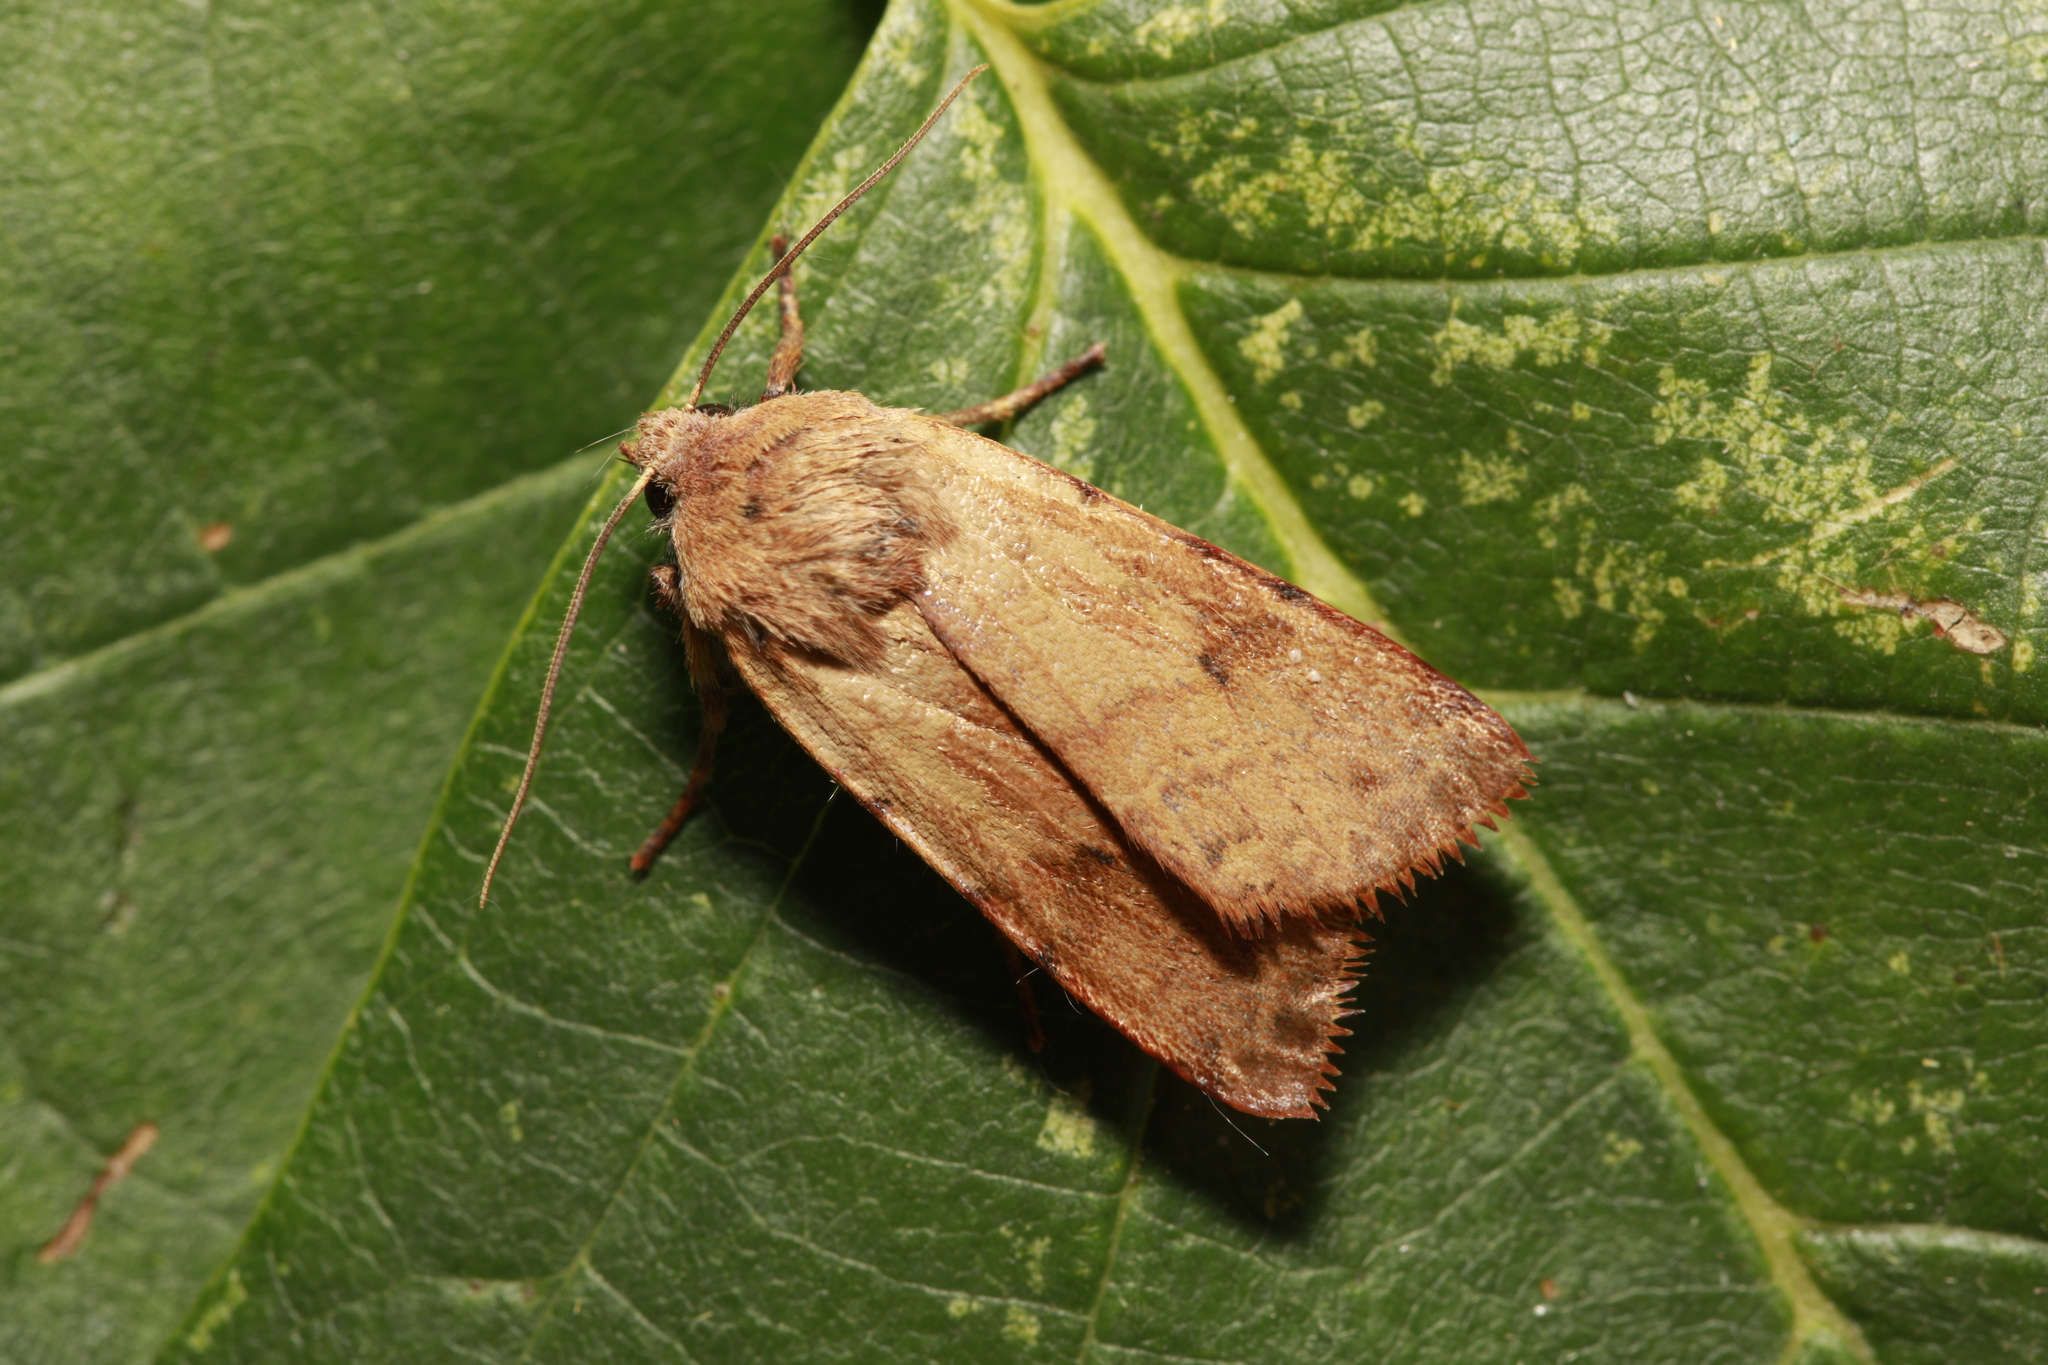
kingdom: Animalia
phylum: Arthropoda
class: Insecta
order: Lepidoptera
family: Noctuidae
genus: Agrochola
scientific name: Agrochola litura
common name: Brown-spot pinion
